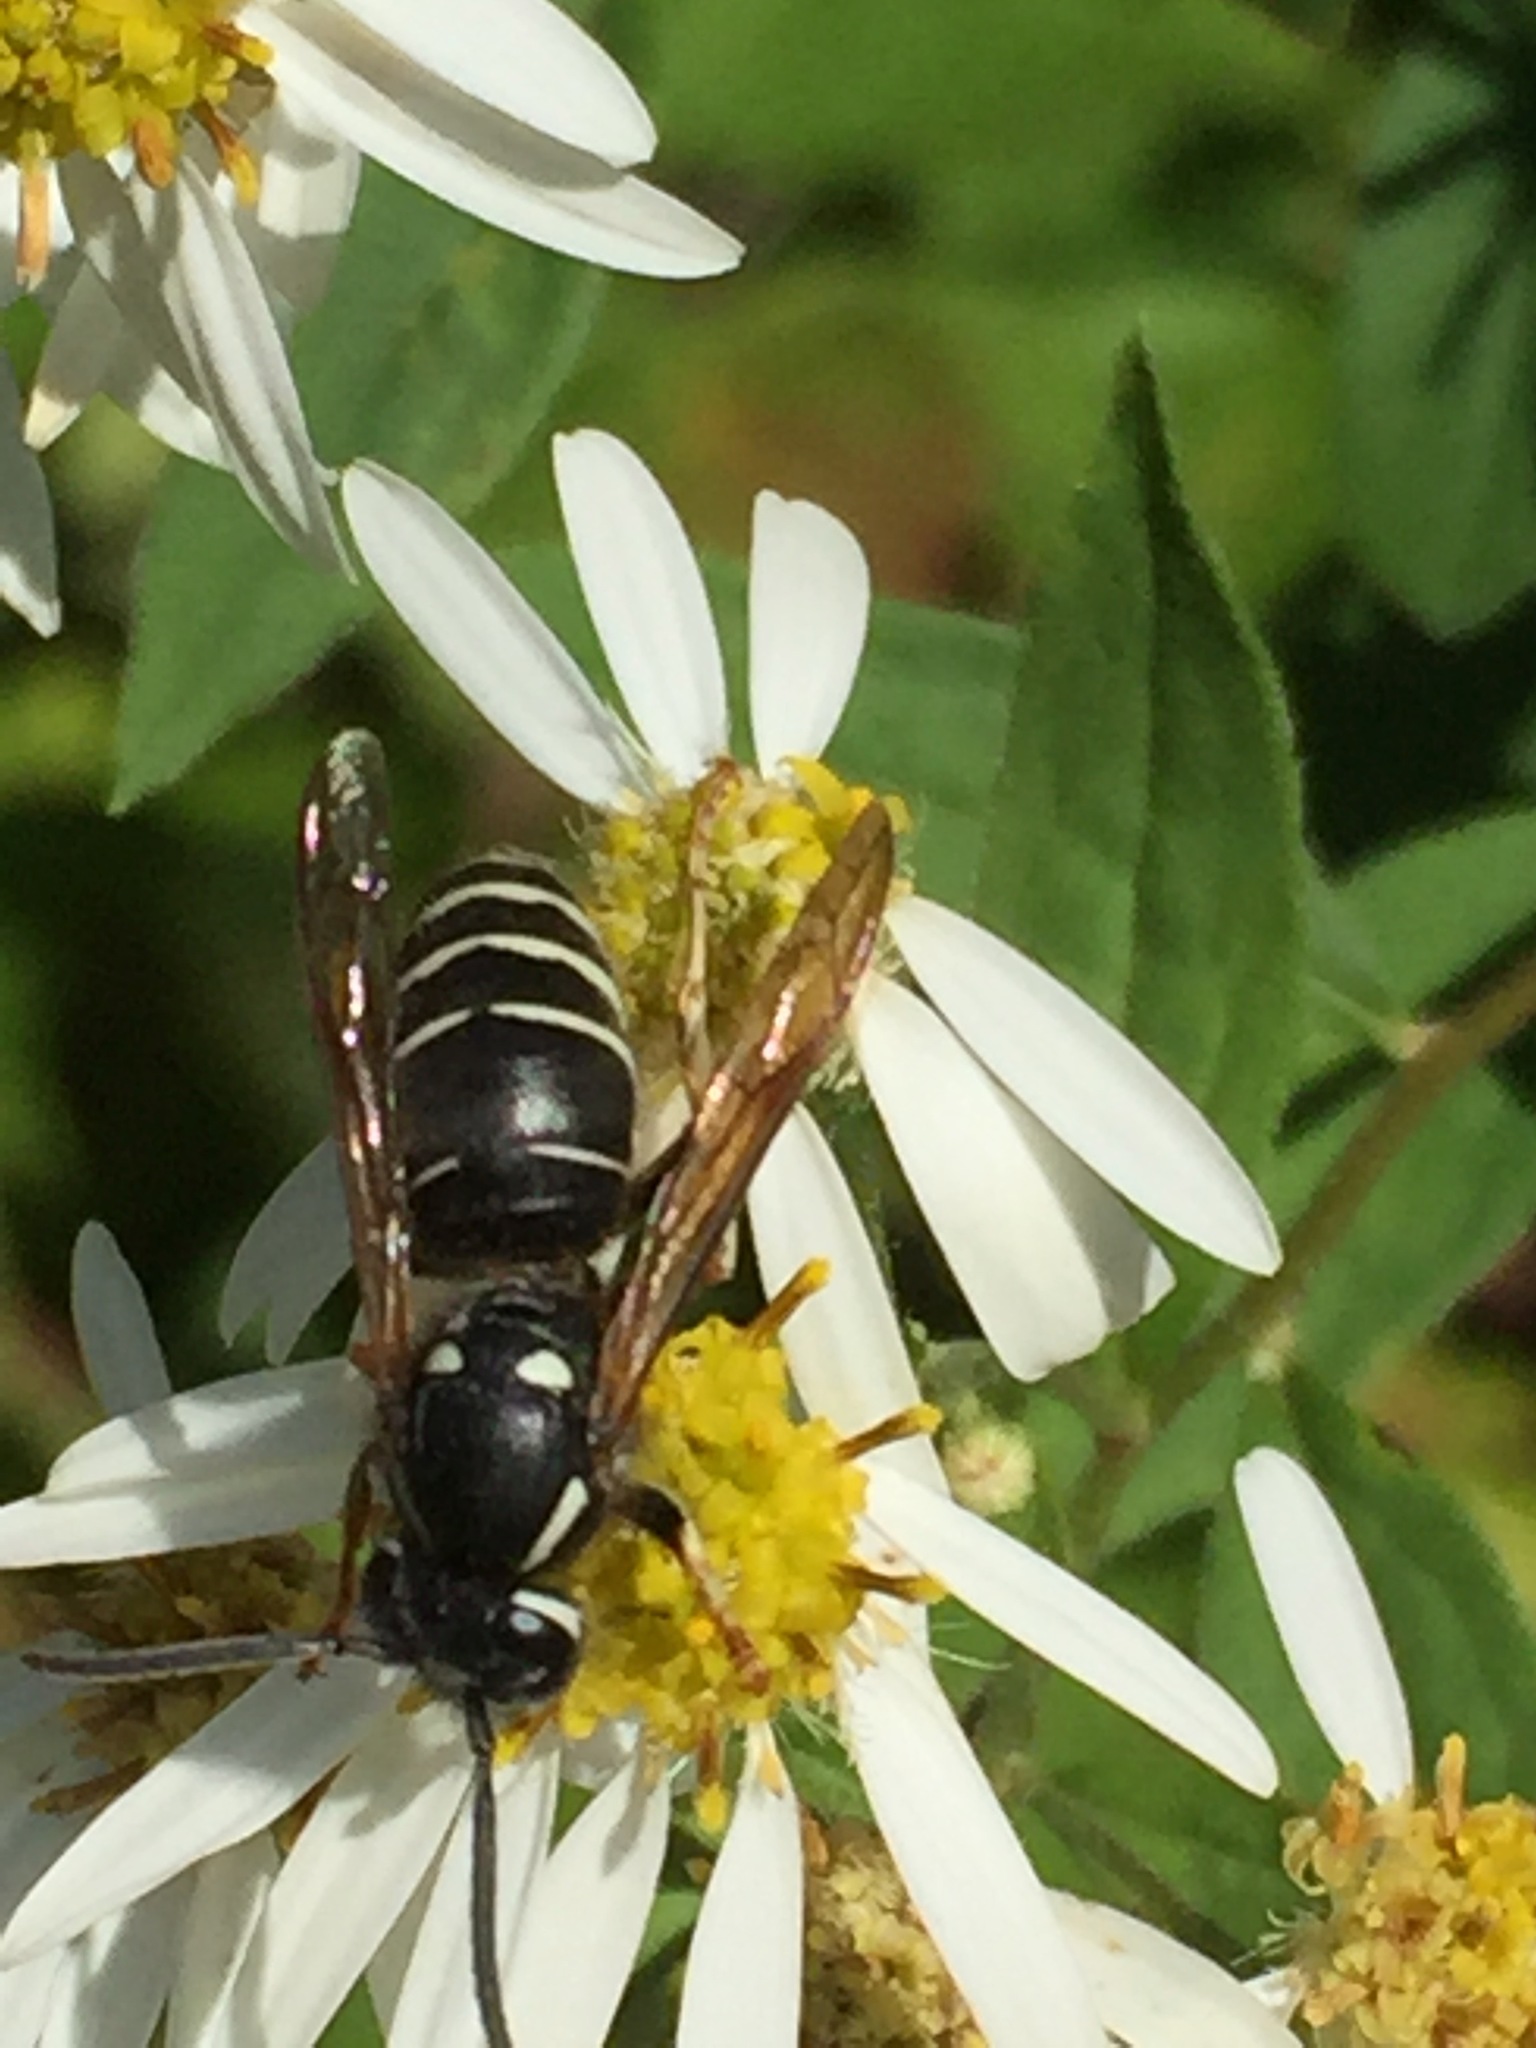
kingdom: Animalia
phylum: Arthropoda
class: Insecta
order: Hymenoptera
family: Vespidae
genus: Vespula
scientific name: Vespula consobrina
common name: Blackjacket
